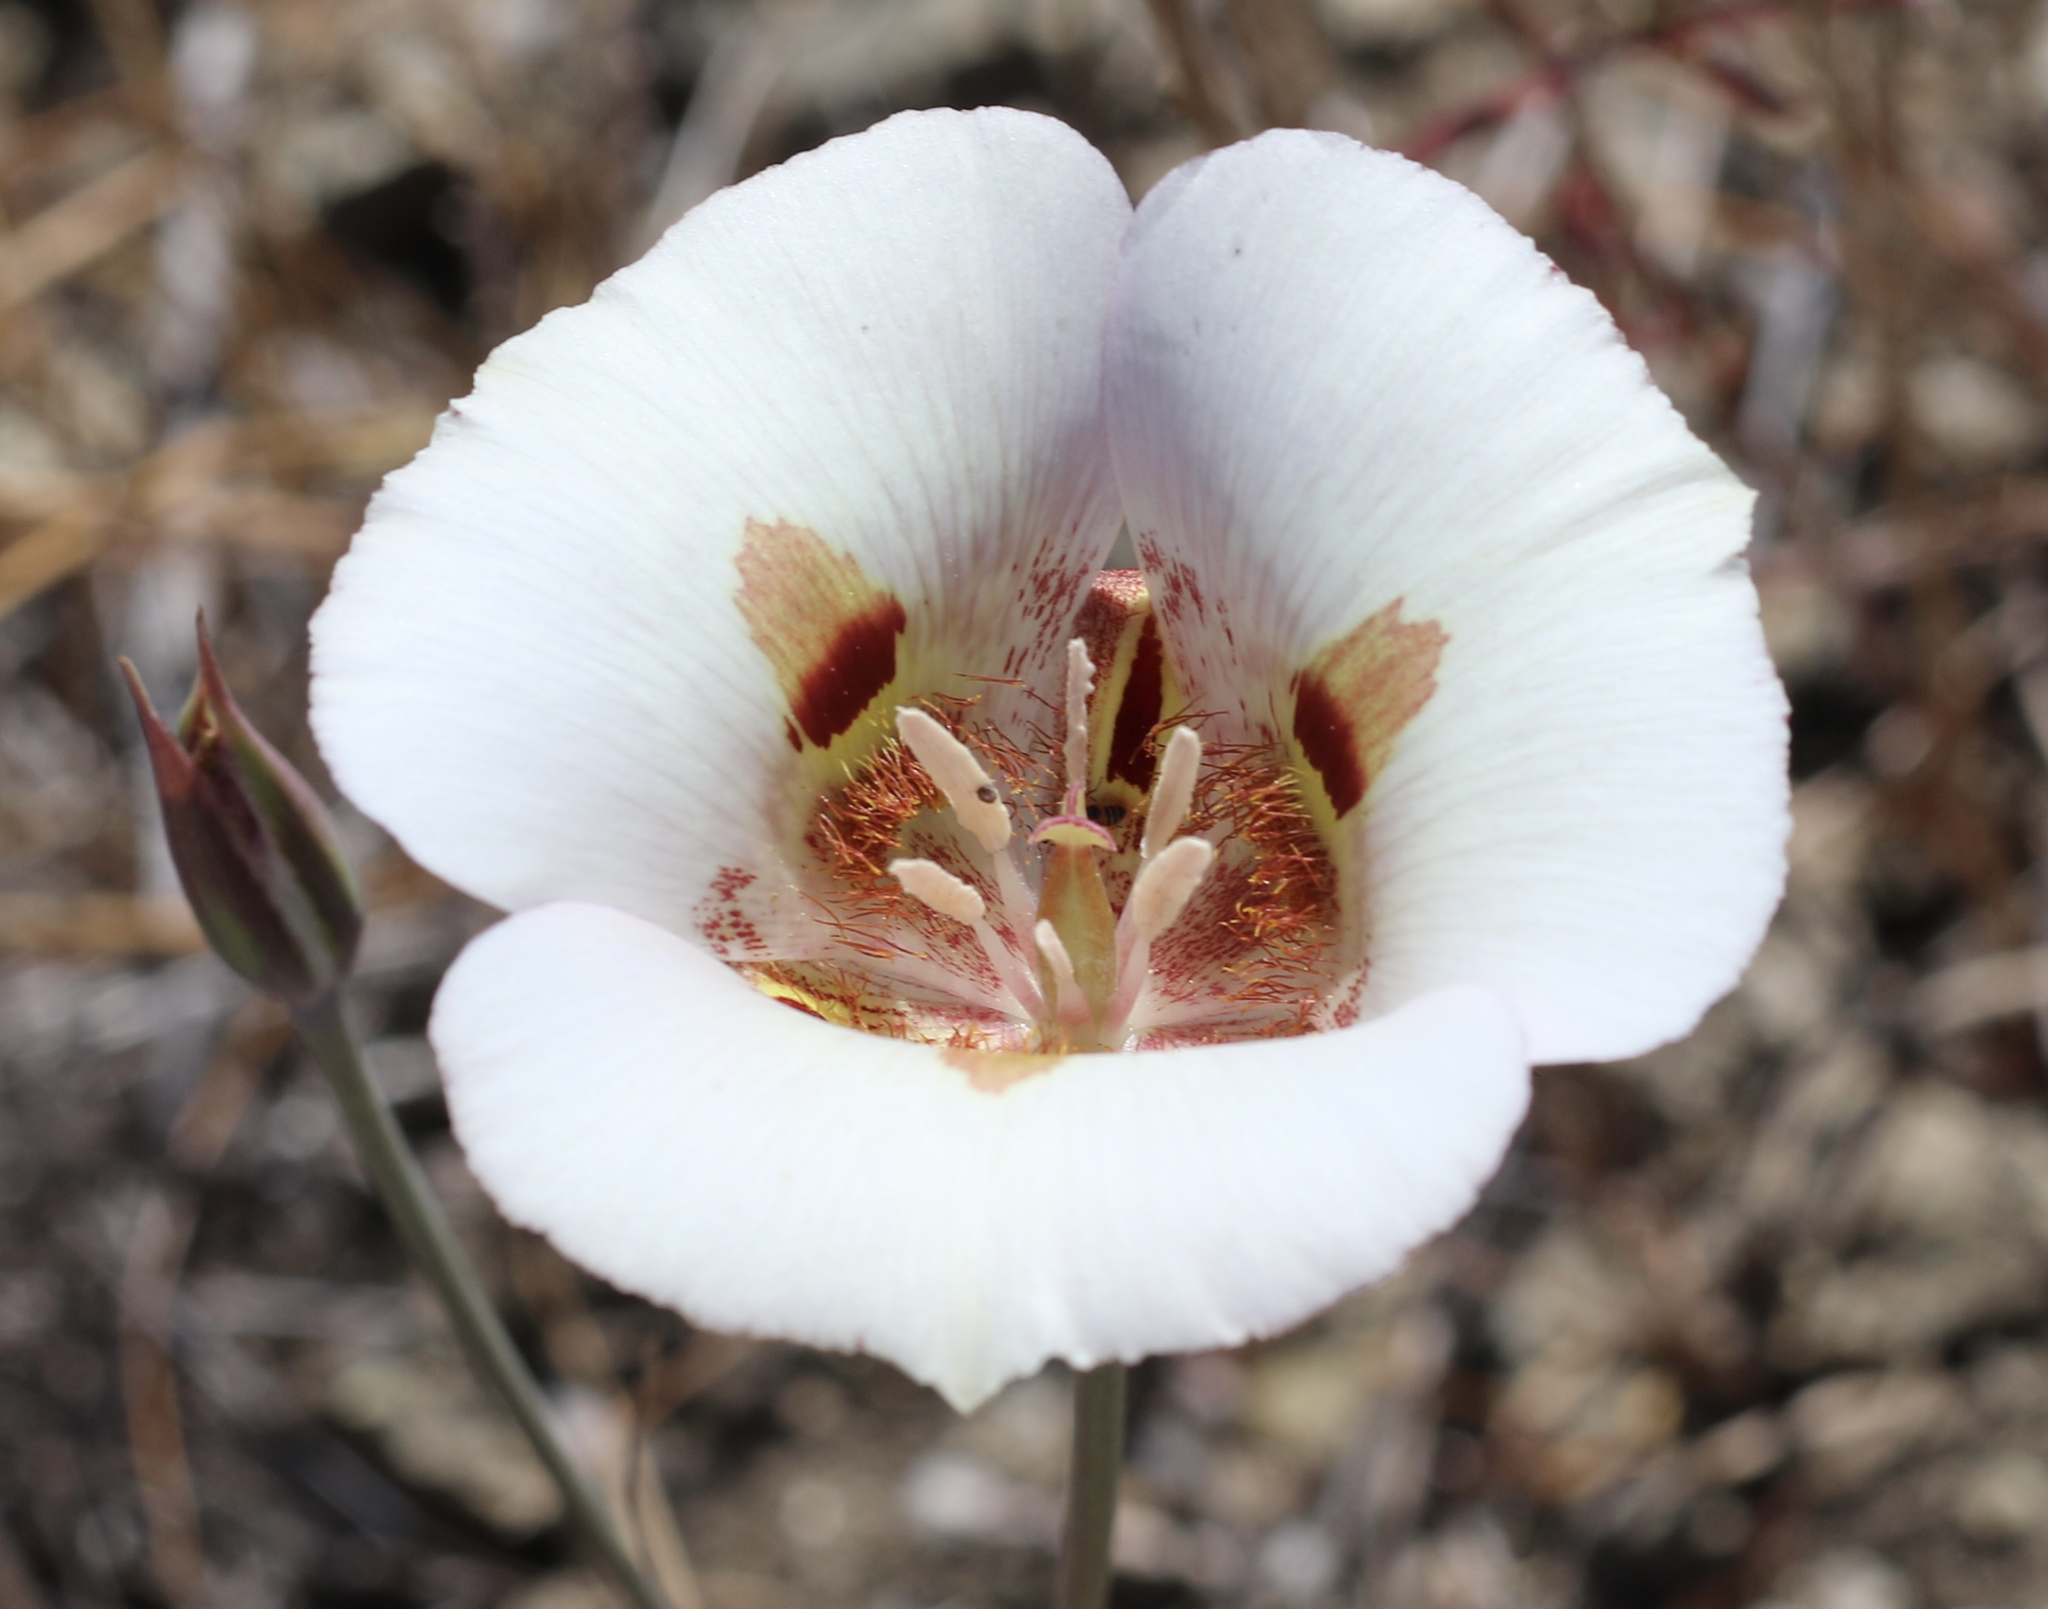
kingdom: Plantae
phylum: Tracheophyta
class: Liliopsida
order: Liliales
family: Liliaceae
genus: Calochortus
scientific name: Calochortus argillosus
